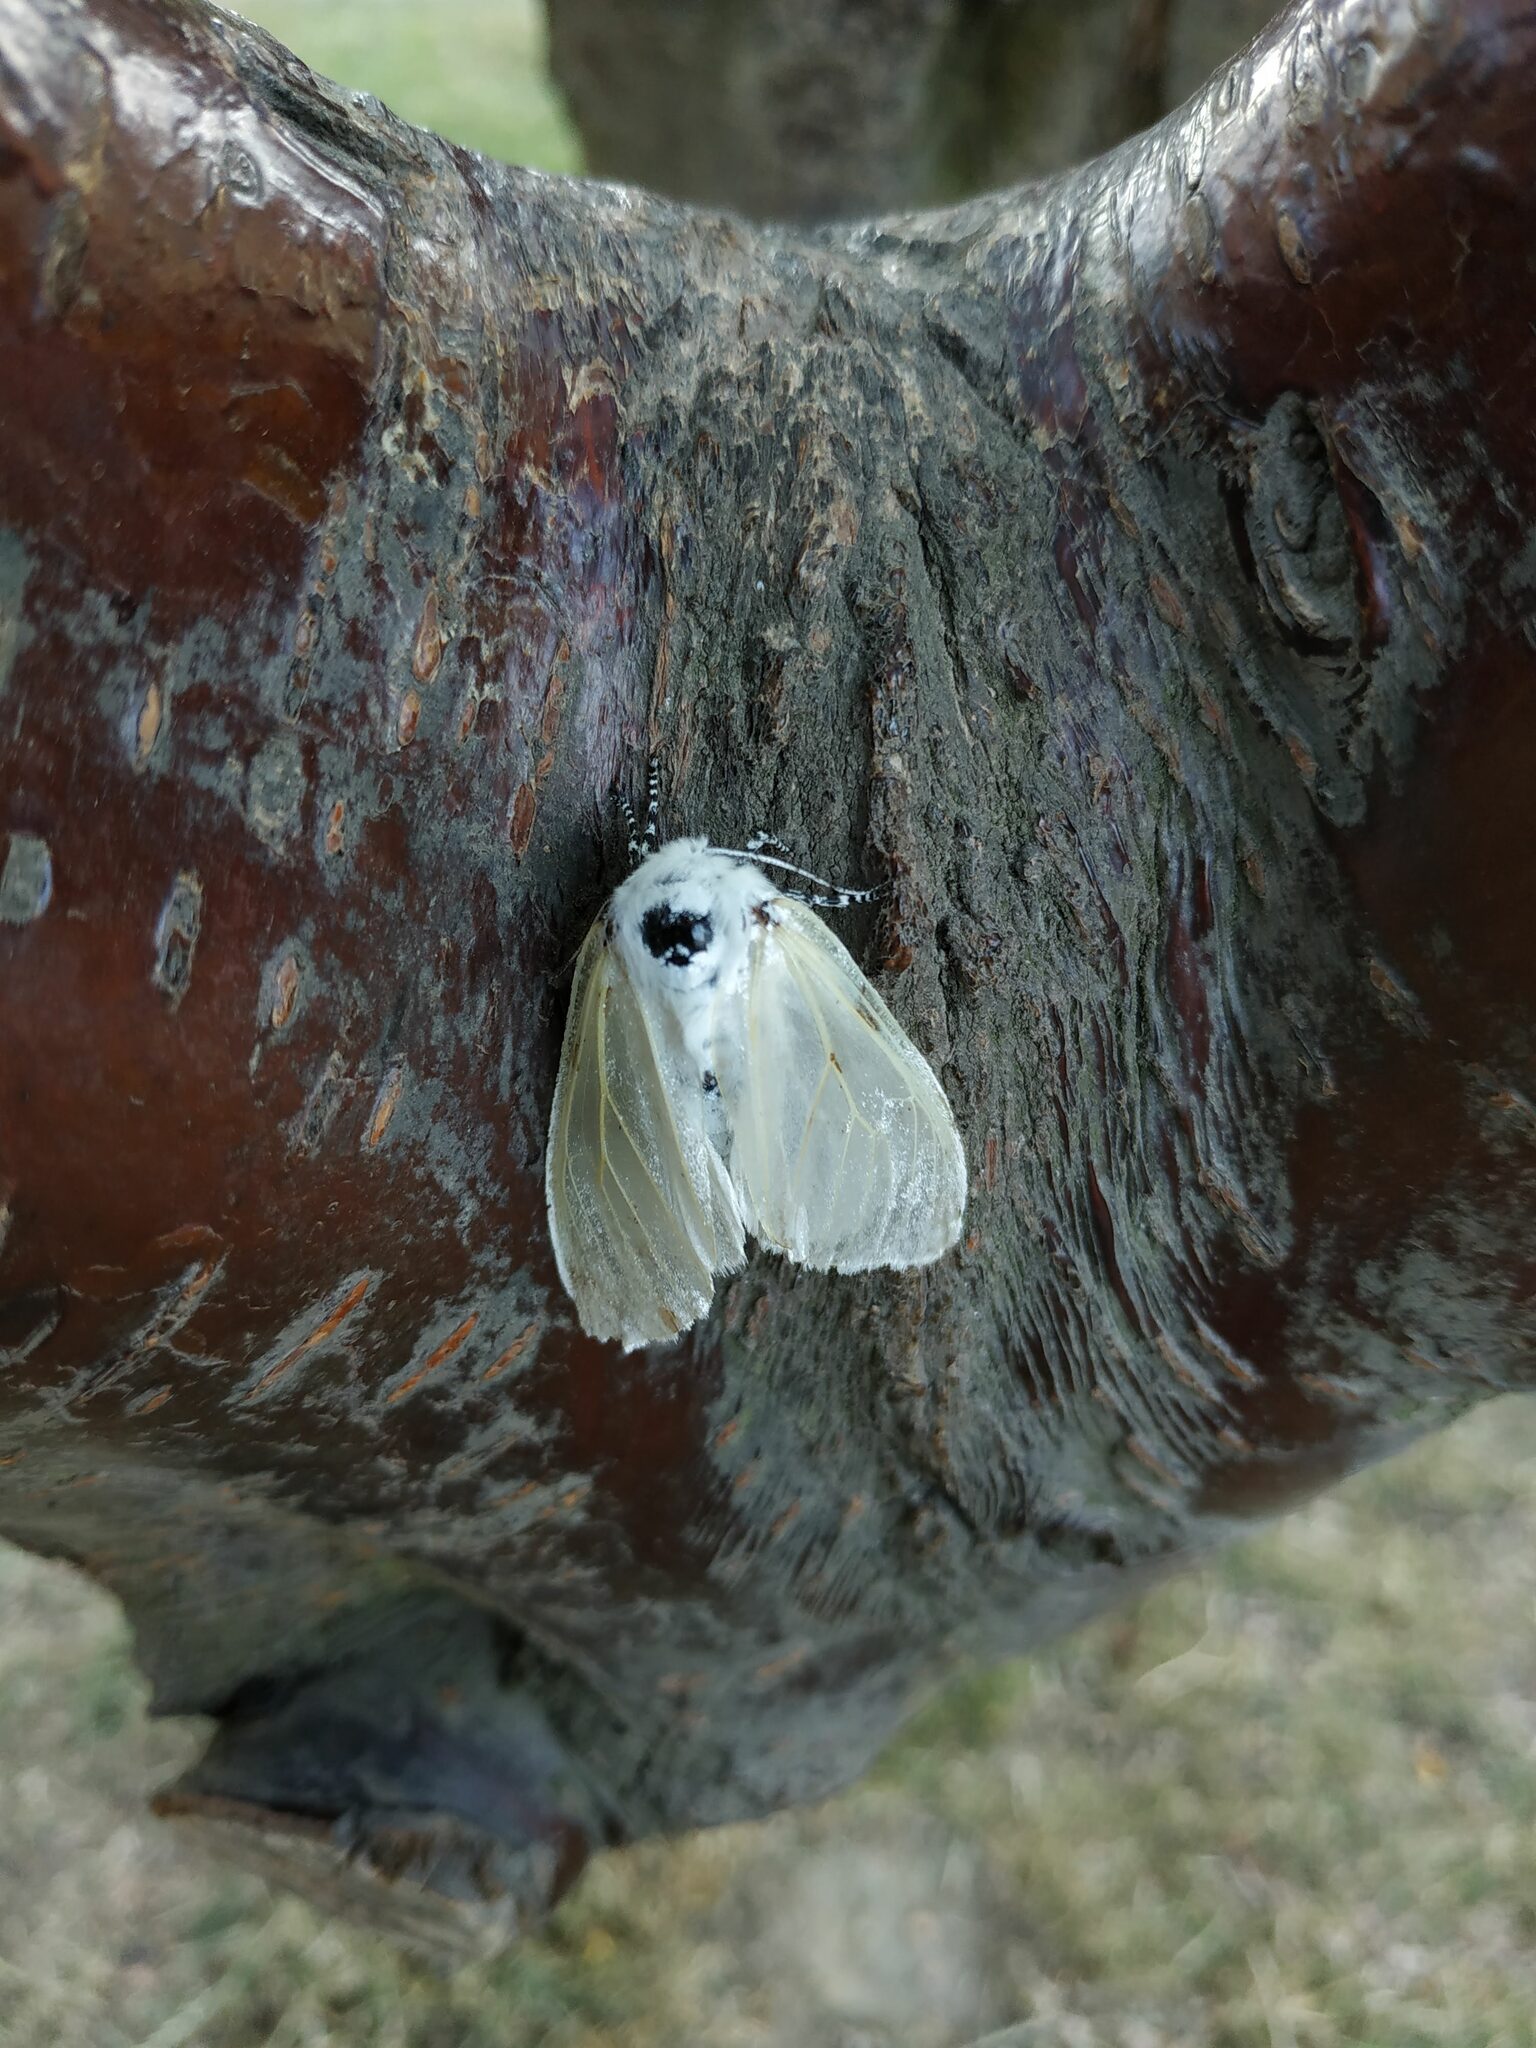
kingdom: Animalia
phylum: Arthropoda
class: Insecta
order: Lepidoptera
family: Erebidae
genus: Leucoma
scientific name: Leucoma salicis
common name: White satin moth
